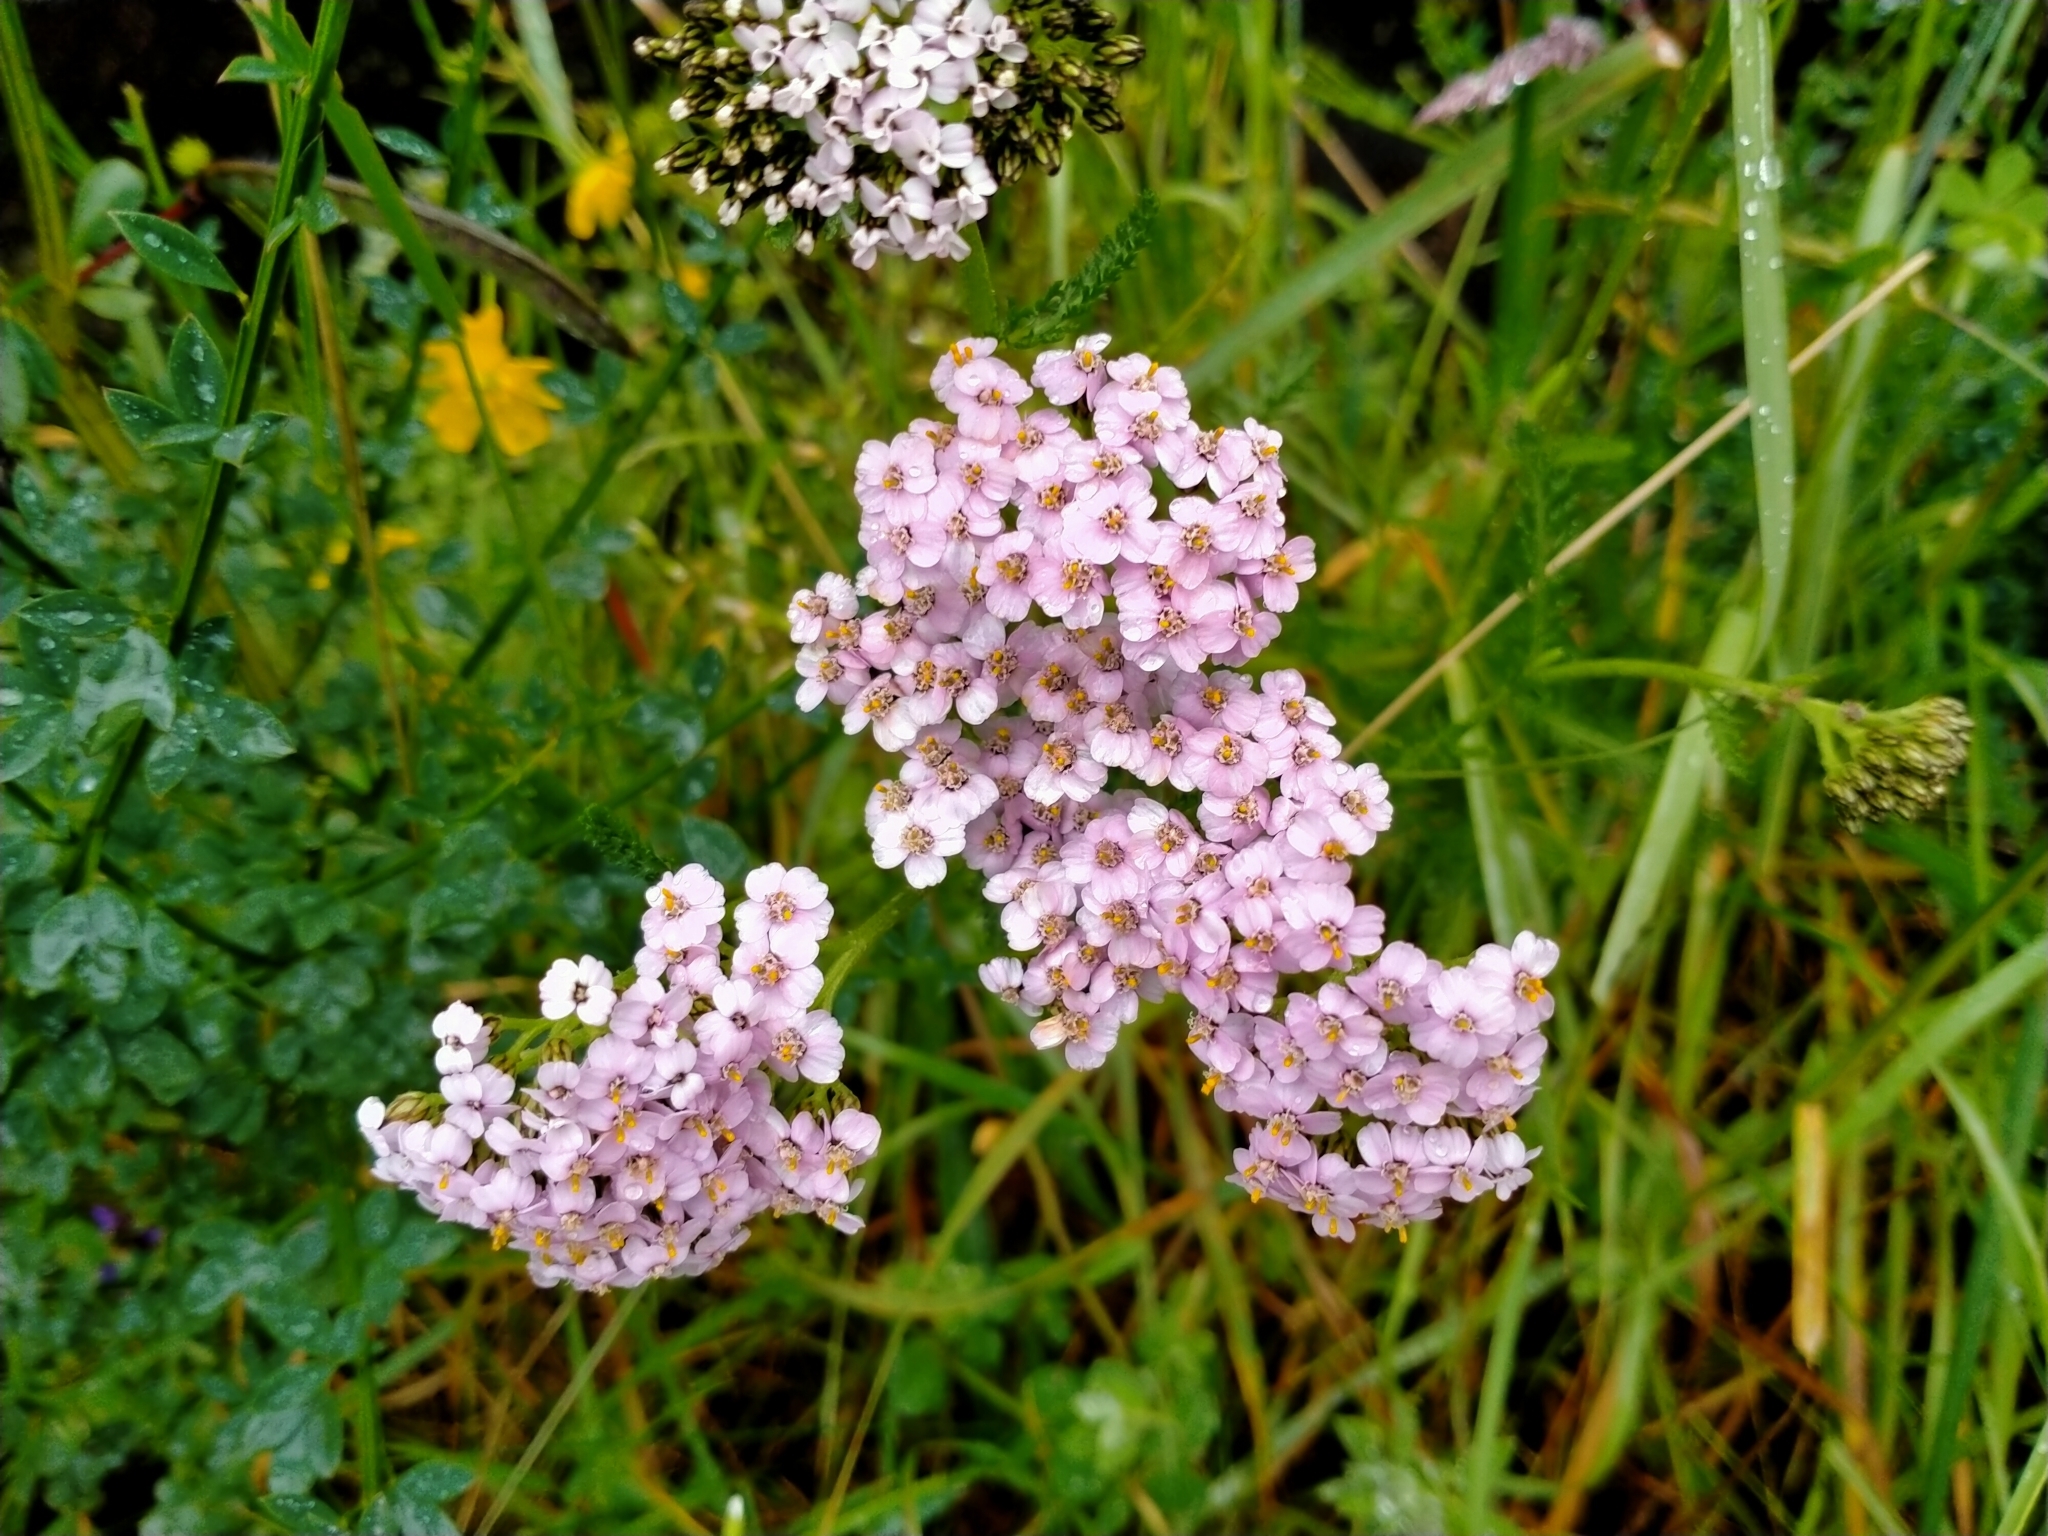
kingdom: Plantae
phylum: Tracheophyta
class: Magnoliopsida
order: Asterales
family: Asteraceae
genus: Achillea
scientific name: Achillea millefolium
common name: Yarrow
